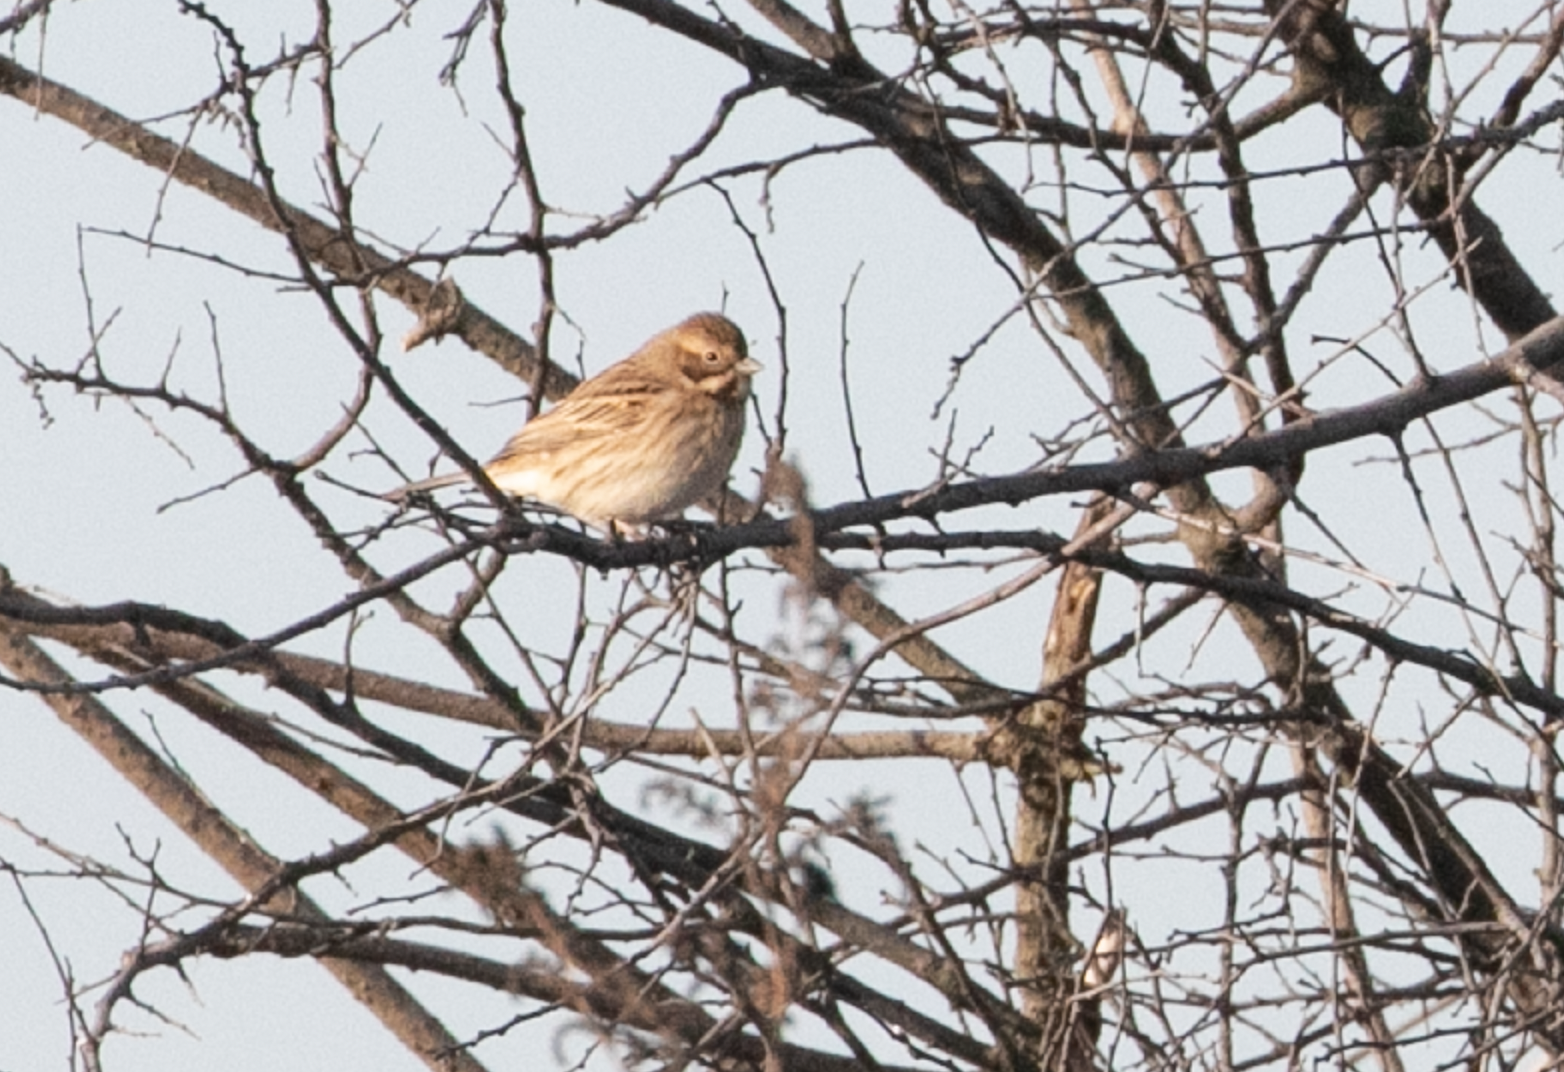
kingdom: Animalia
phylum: Chordata
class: Aves
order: Passeriformes
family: Emberizidae
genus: Emberiza
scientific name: Emberiza schoeniclus
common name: Reed bunting
